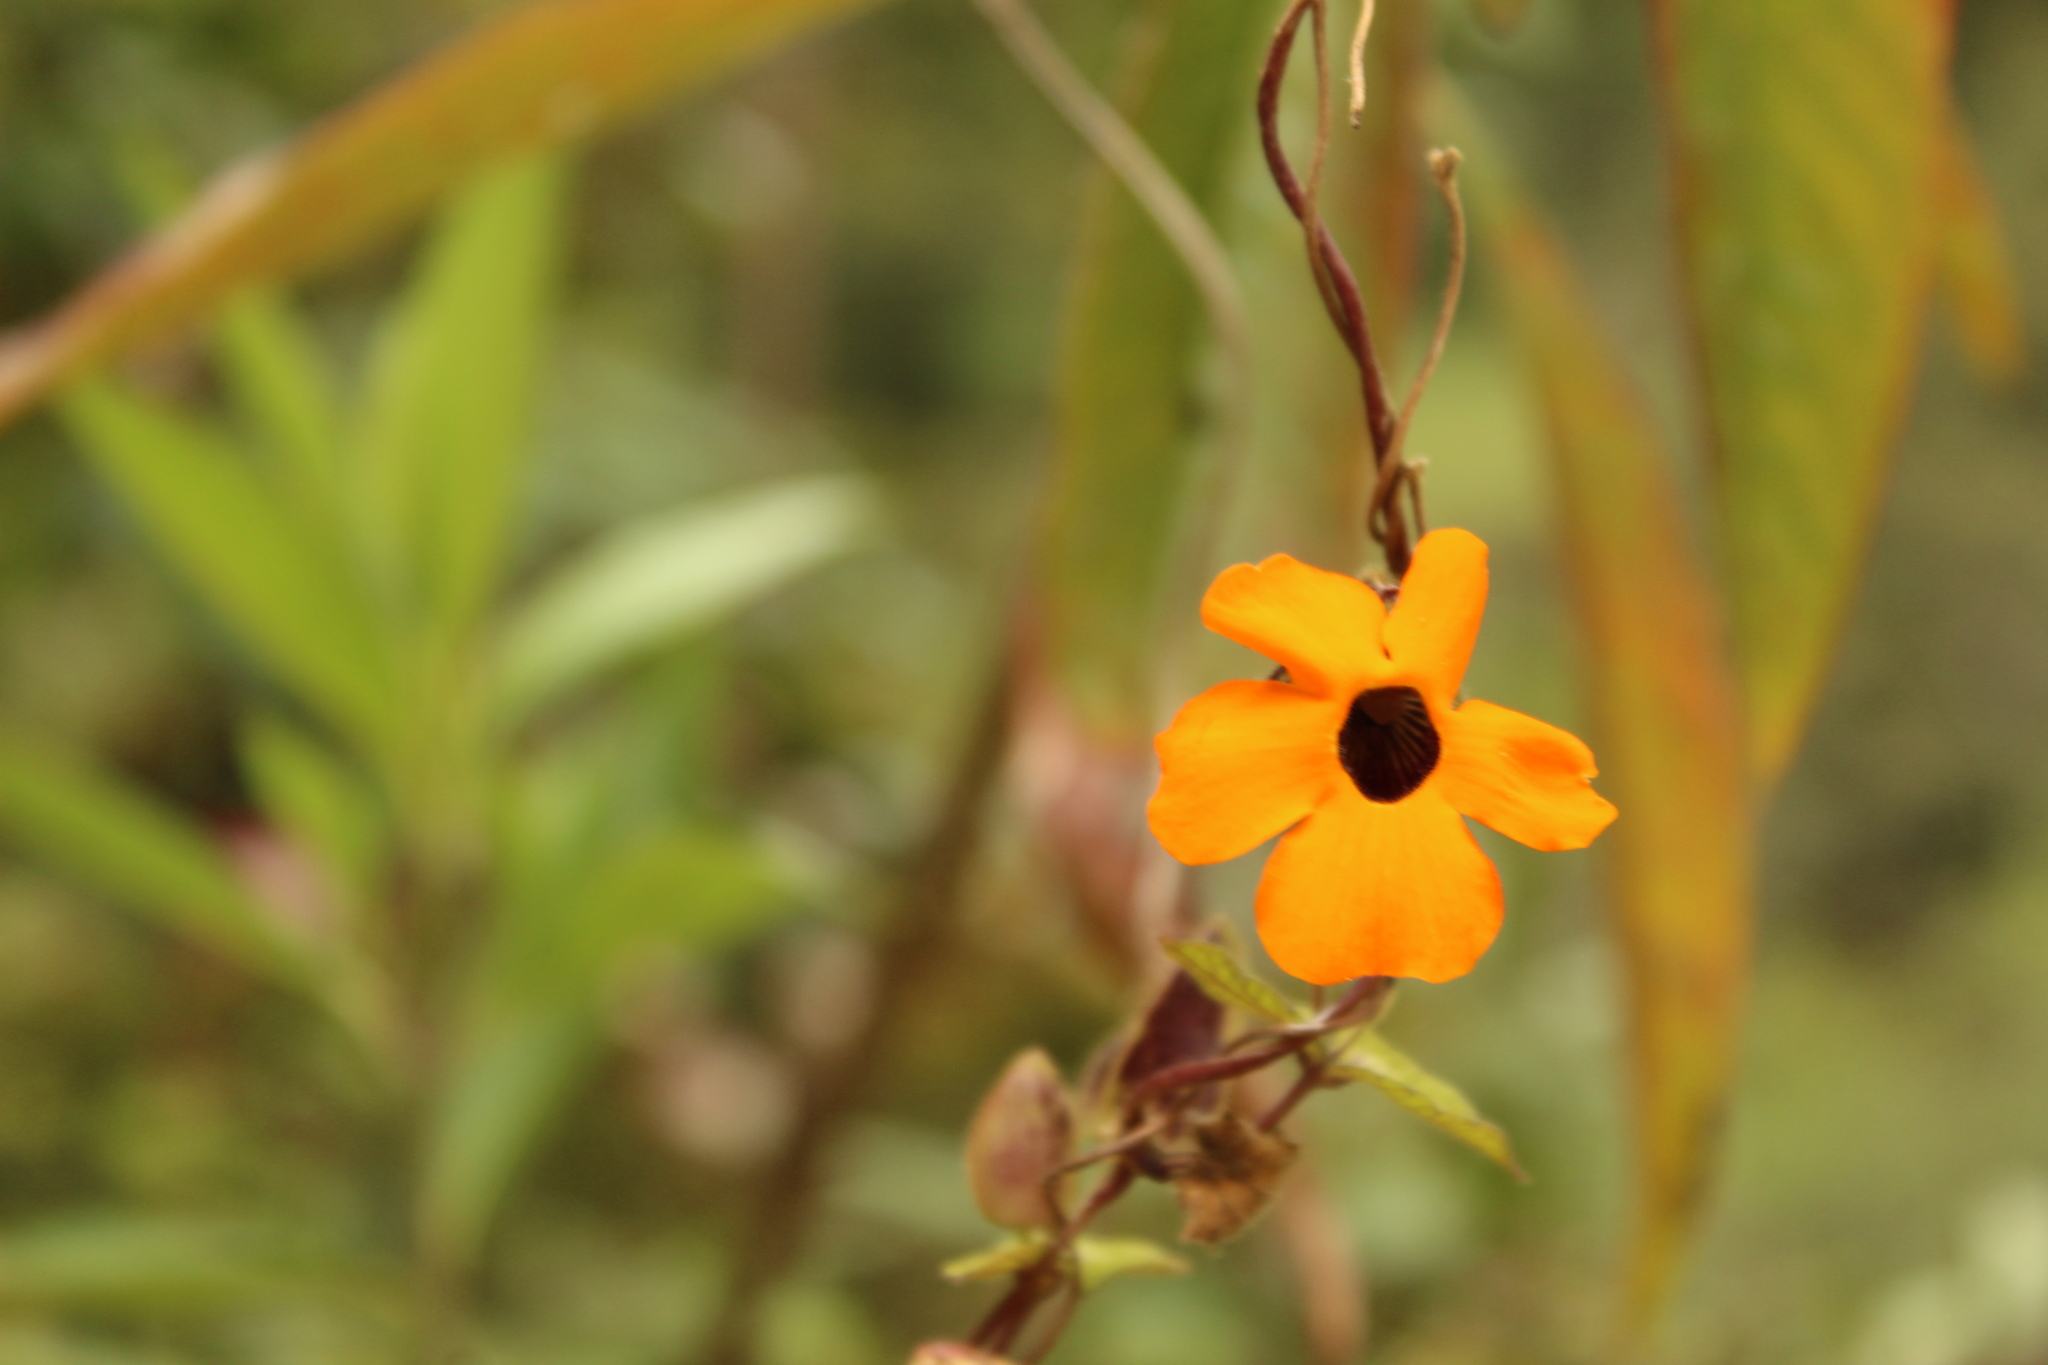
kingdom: Plantae
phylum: Tracheophyta
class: Magnoliopsida
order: Lamiales
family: Acanthaceae
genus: Thunbergia
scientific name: Thunbergia alata
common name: Blackeyed susan vine
